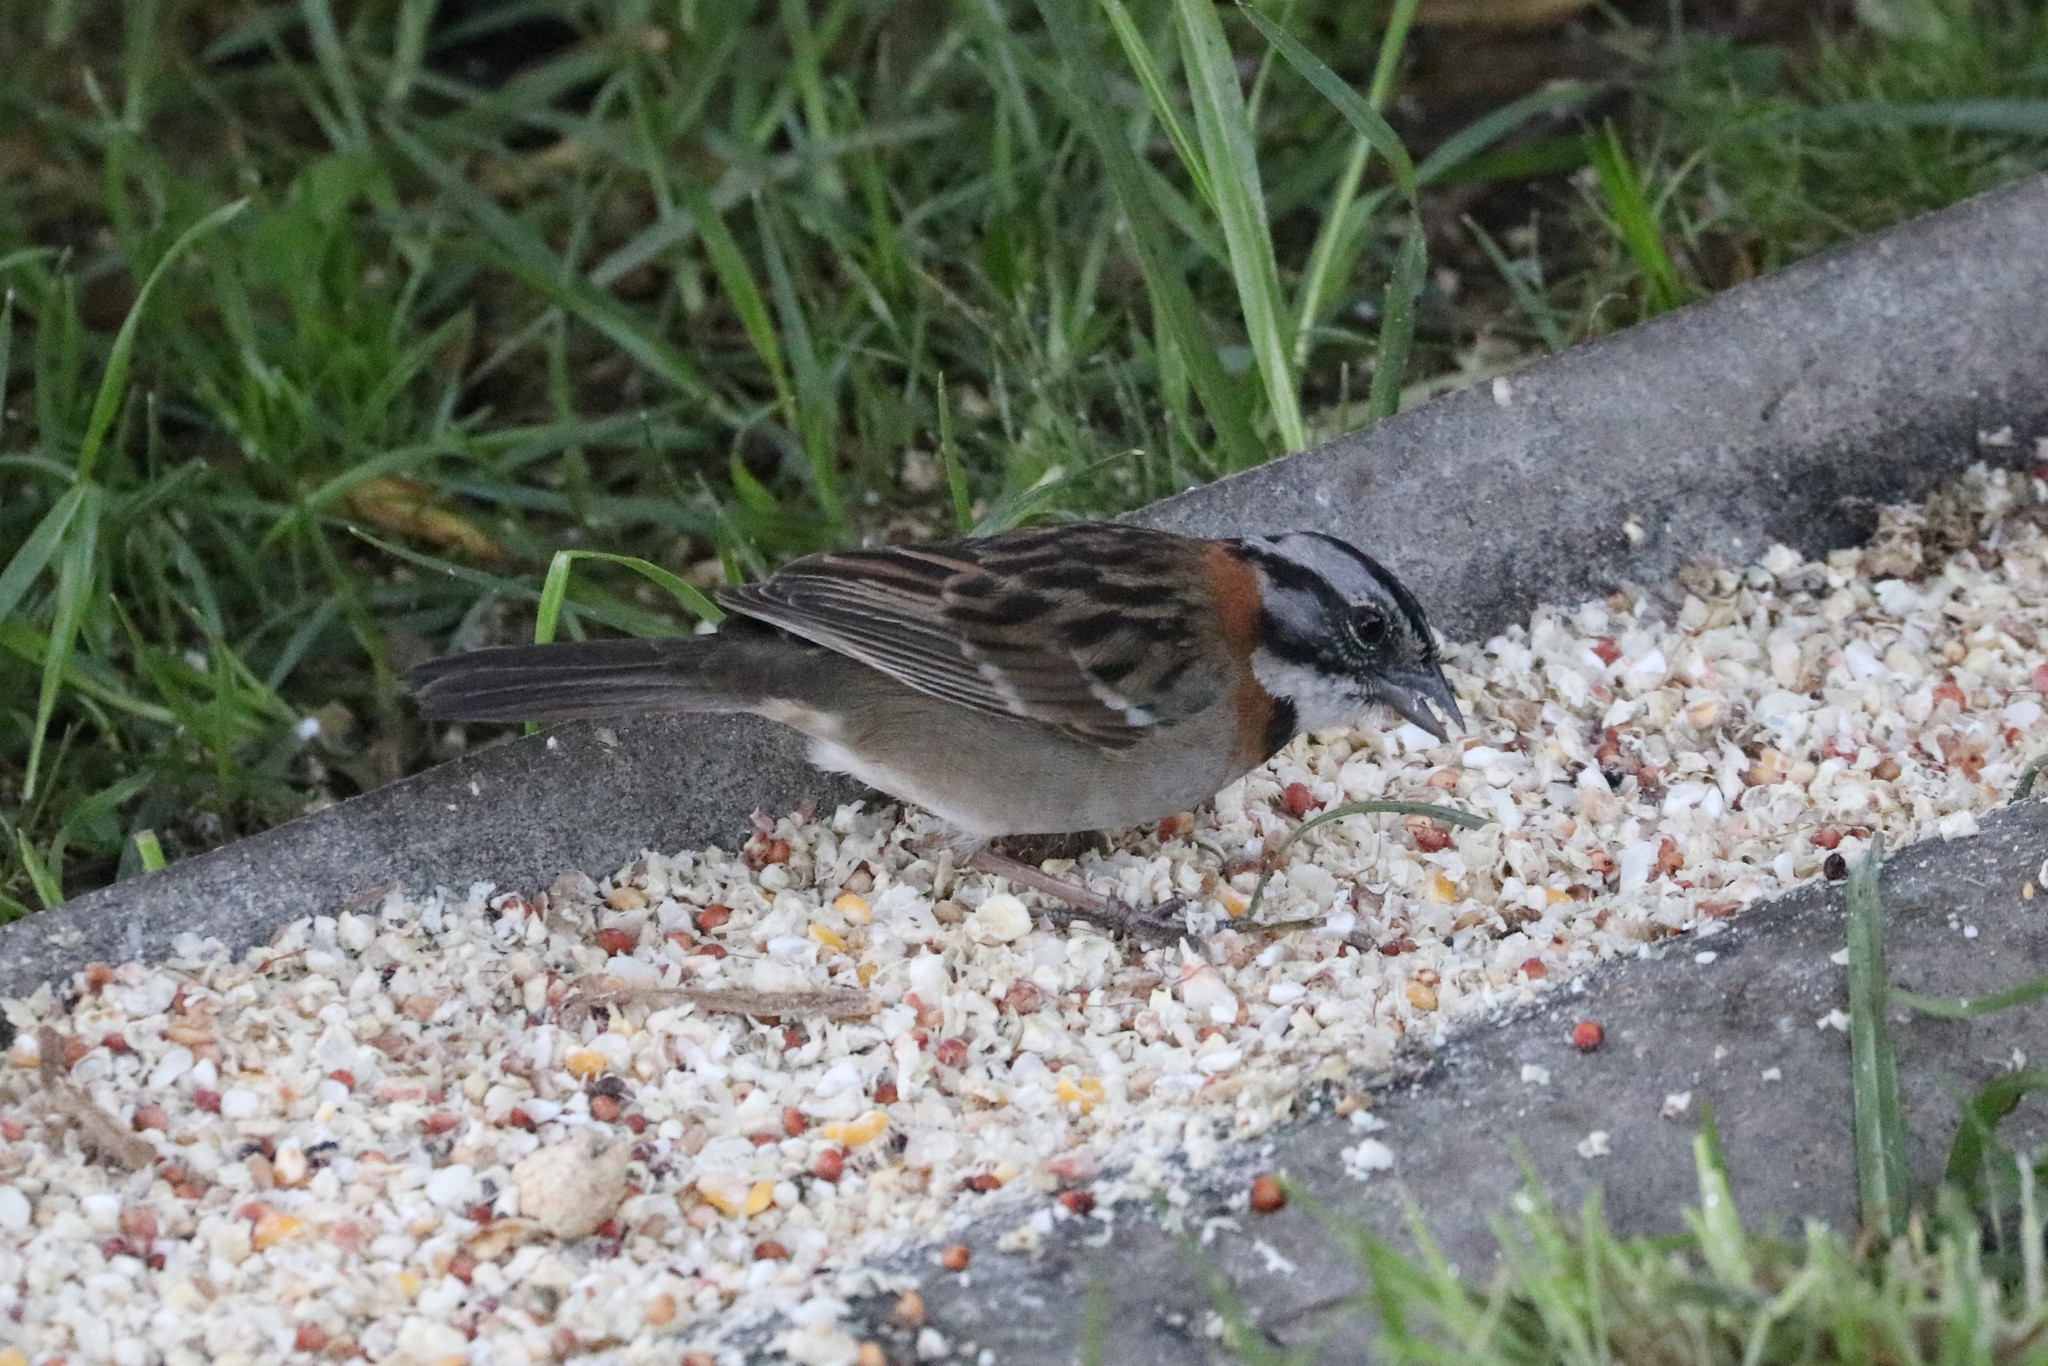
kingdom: Animalia
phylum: Chordata
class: Aves
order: Passeriformes
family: Passerellidae
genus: Zonotrichia
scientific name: Zonotrichia capensis
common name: Rufous-collared sparrow
